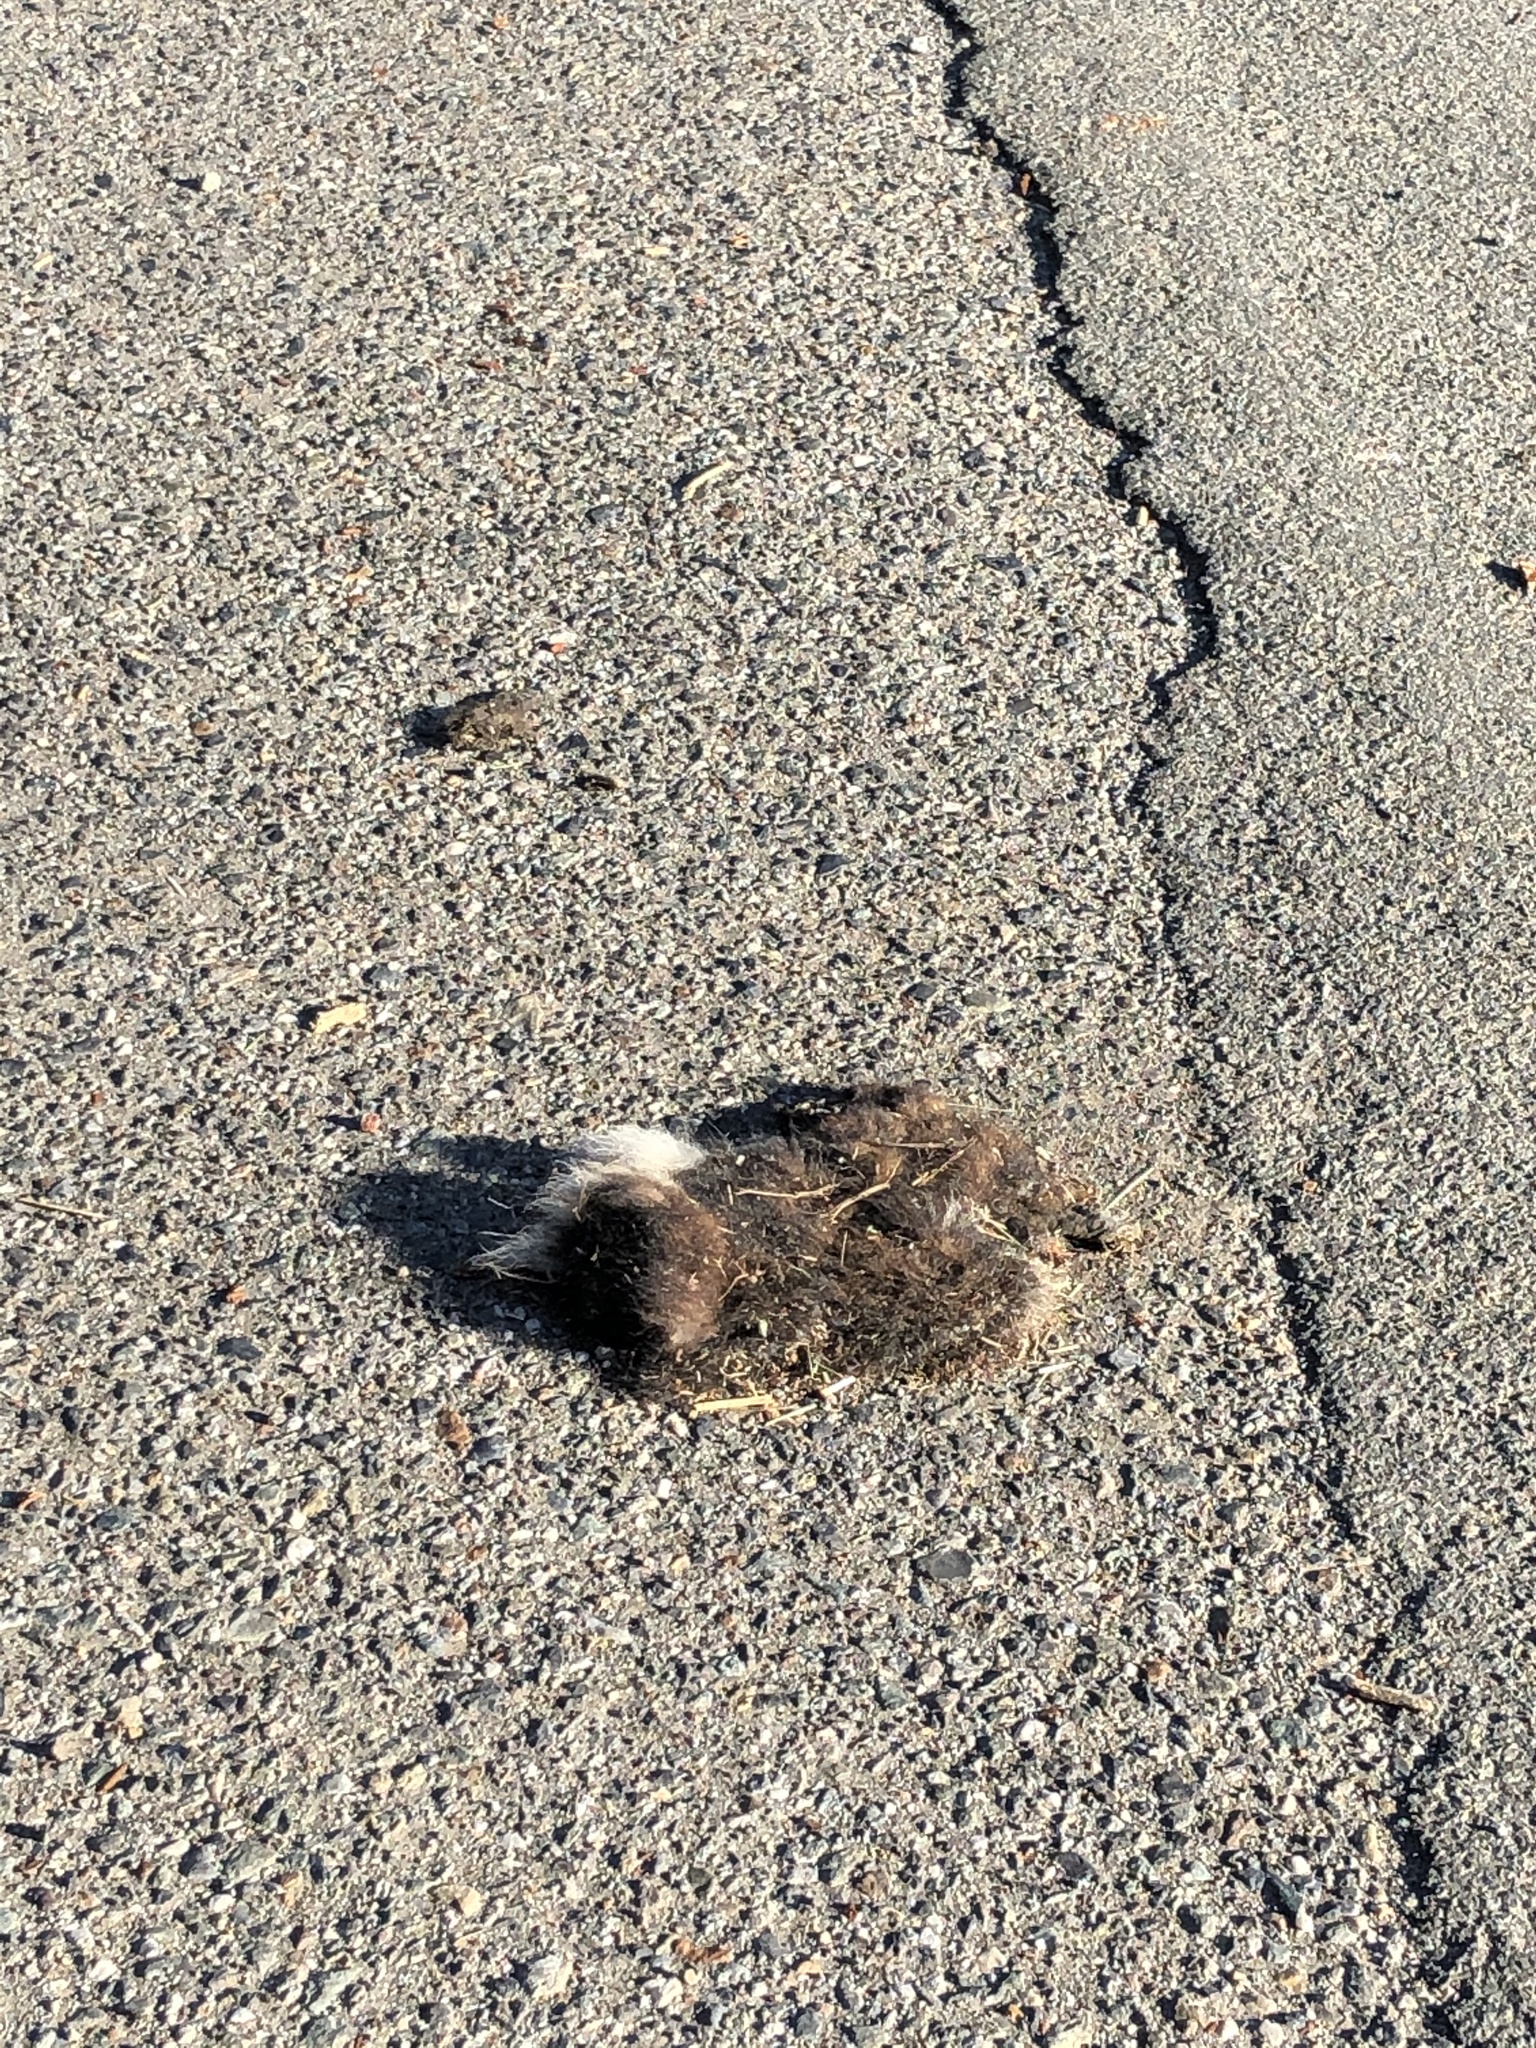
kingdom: Animalia
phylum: Chordata
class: Mammalia
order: Carnivora
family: Mephitidae
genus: Mephitis
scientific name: Mephitis mephitis
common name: Striped skunk
